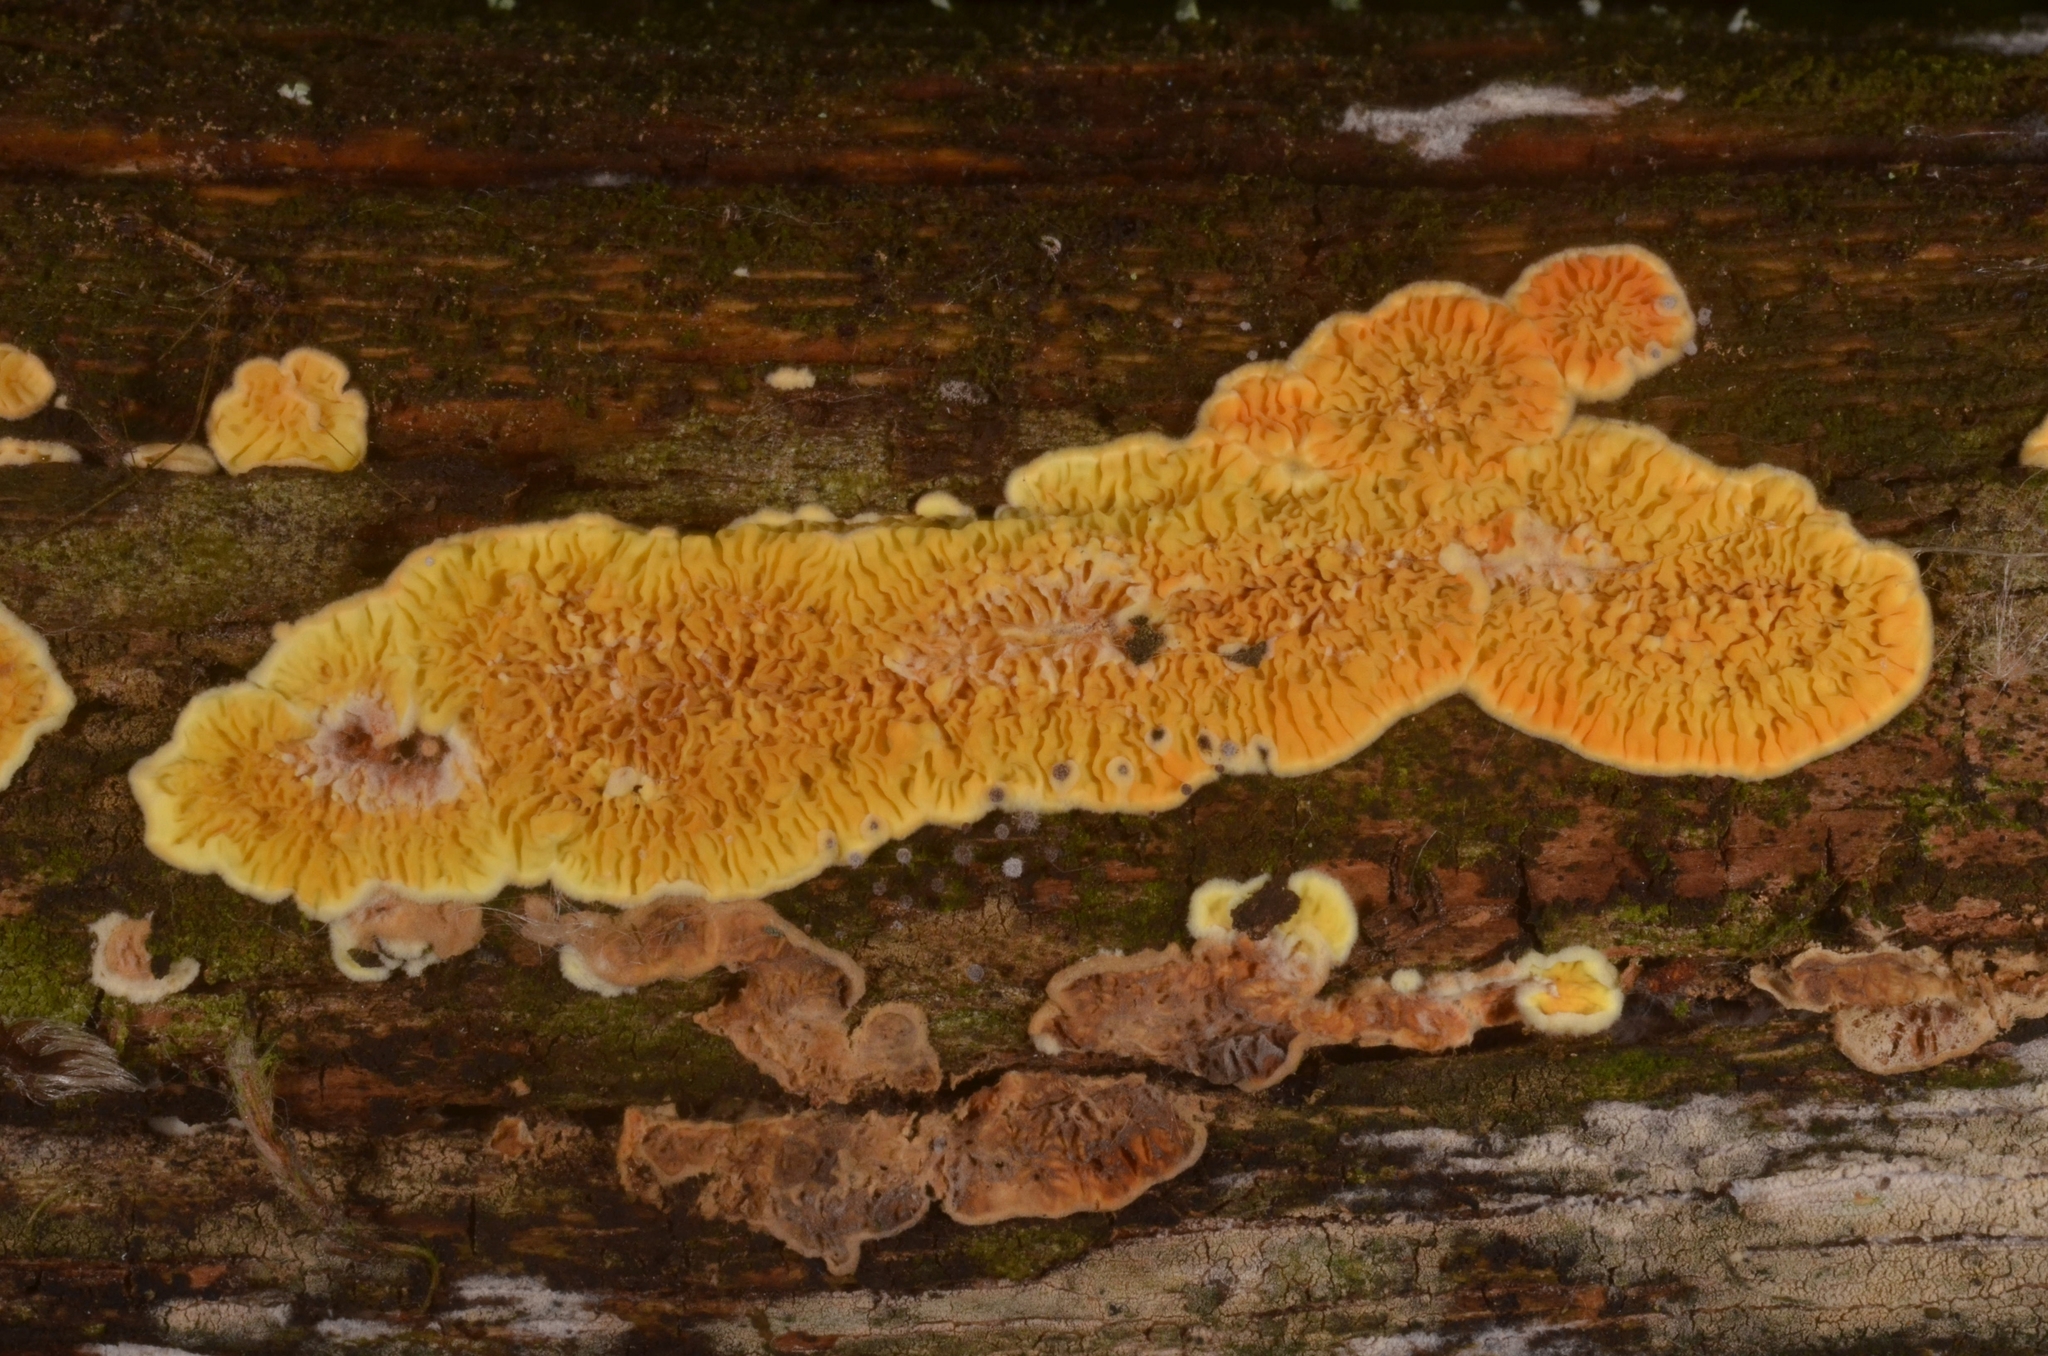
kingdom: Fungi
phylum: Basidiomycota
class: Agaricomycetes
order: Boletales
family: Tapinellaceae
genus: Pseudomerulius
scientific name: Pseudomerulius aureus
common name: Orange netcrust
